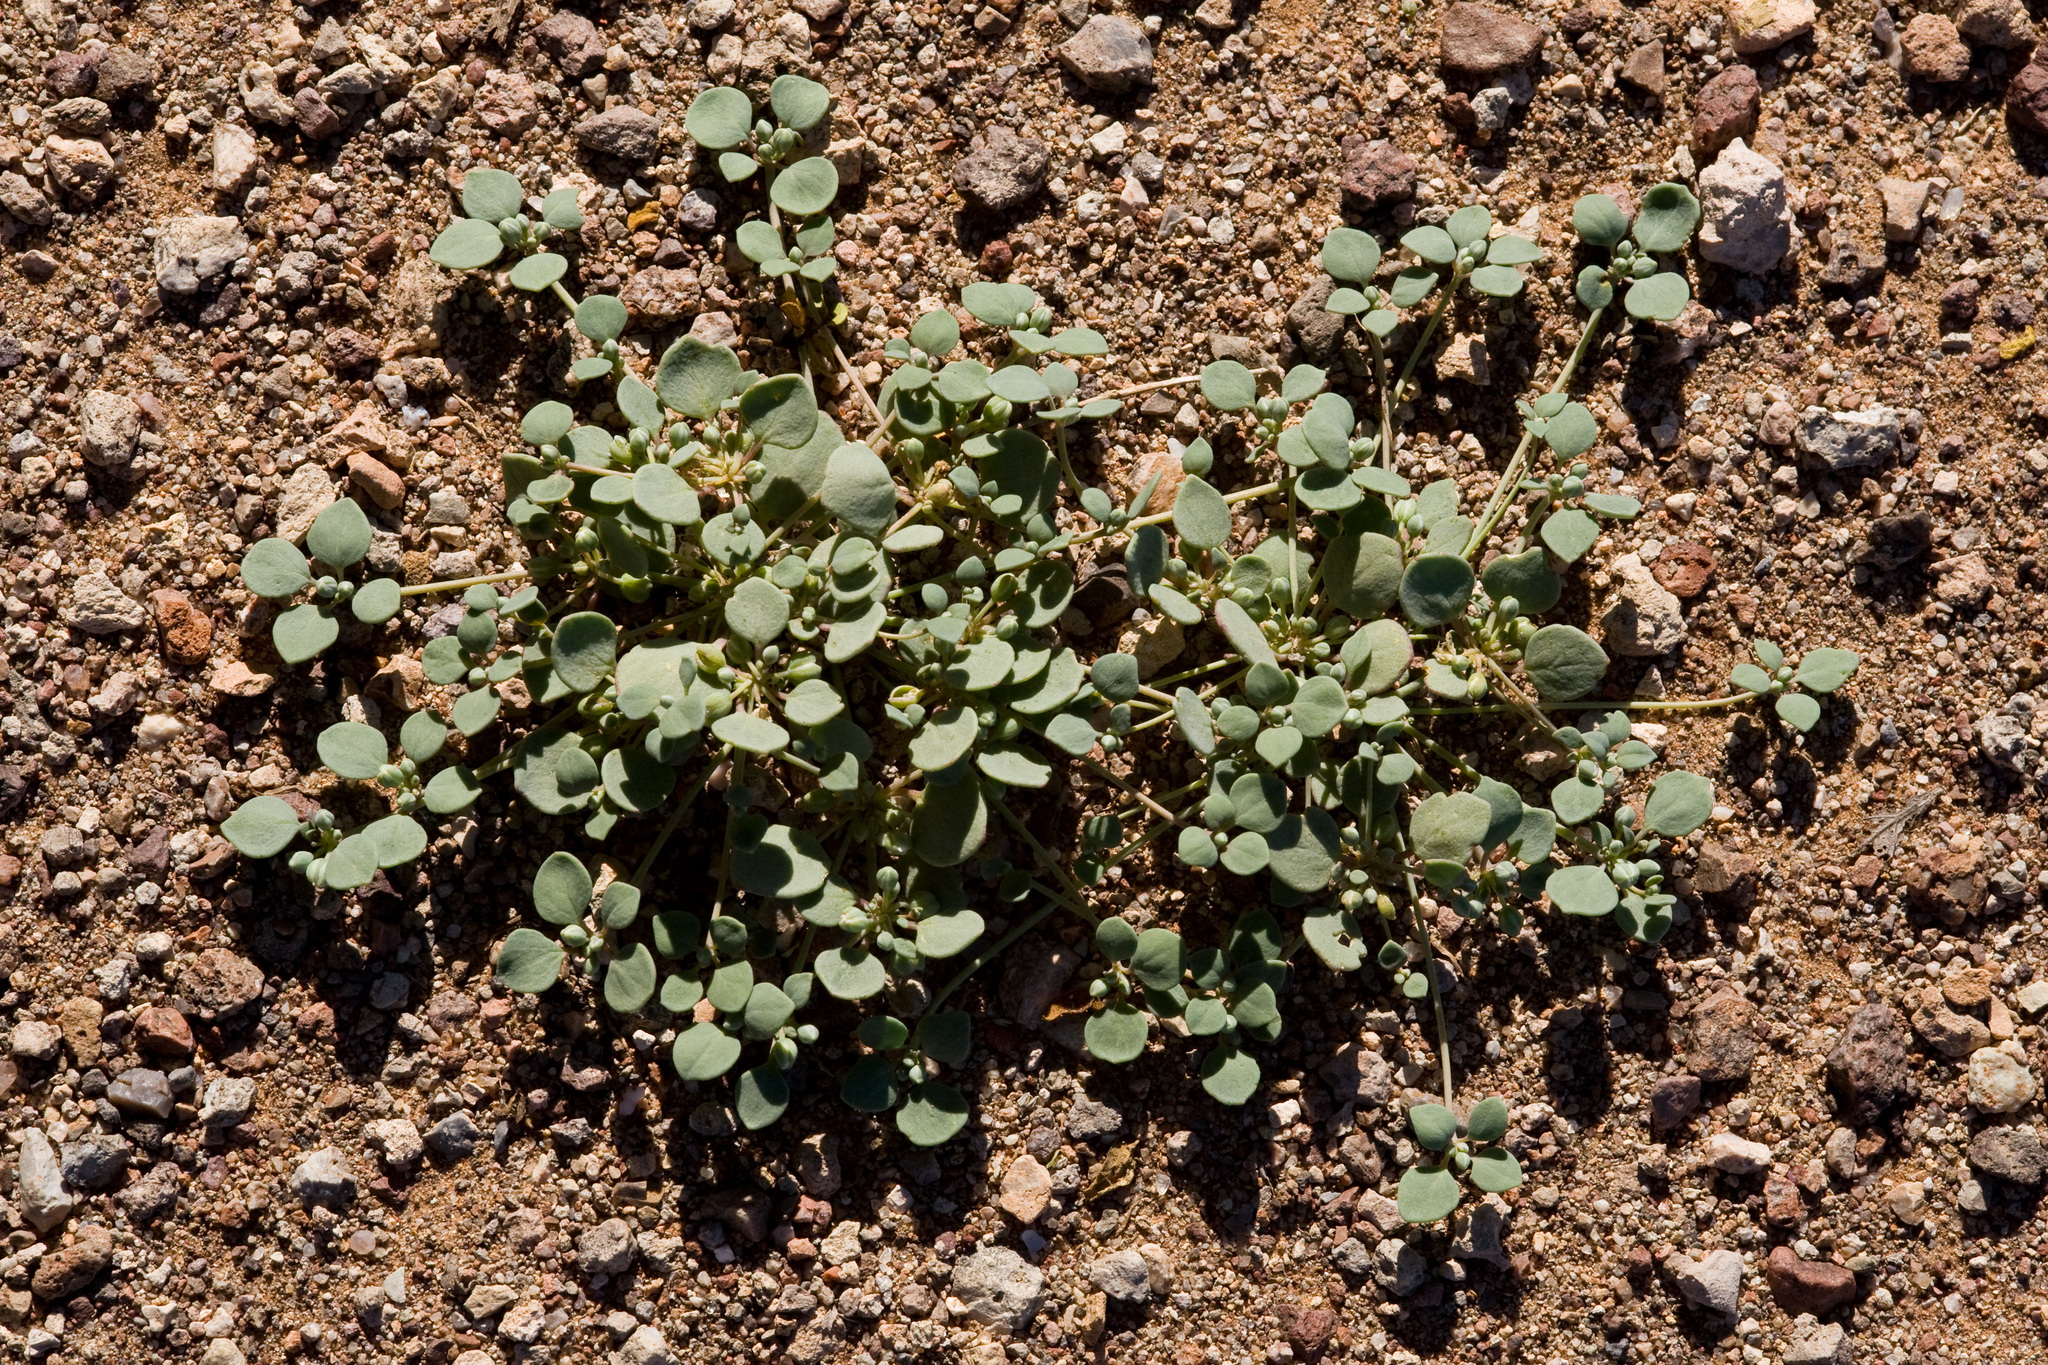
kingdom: Plantae
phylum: Tracheophyta
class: Magnoliopsida
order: Caryophyllales
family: Caryophyllaceae
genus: Drymaria
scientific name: Drymaria pachyphylla
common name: Inkweed
